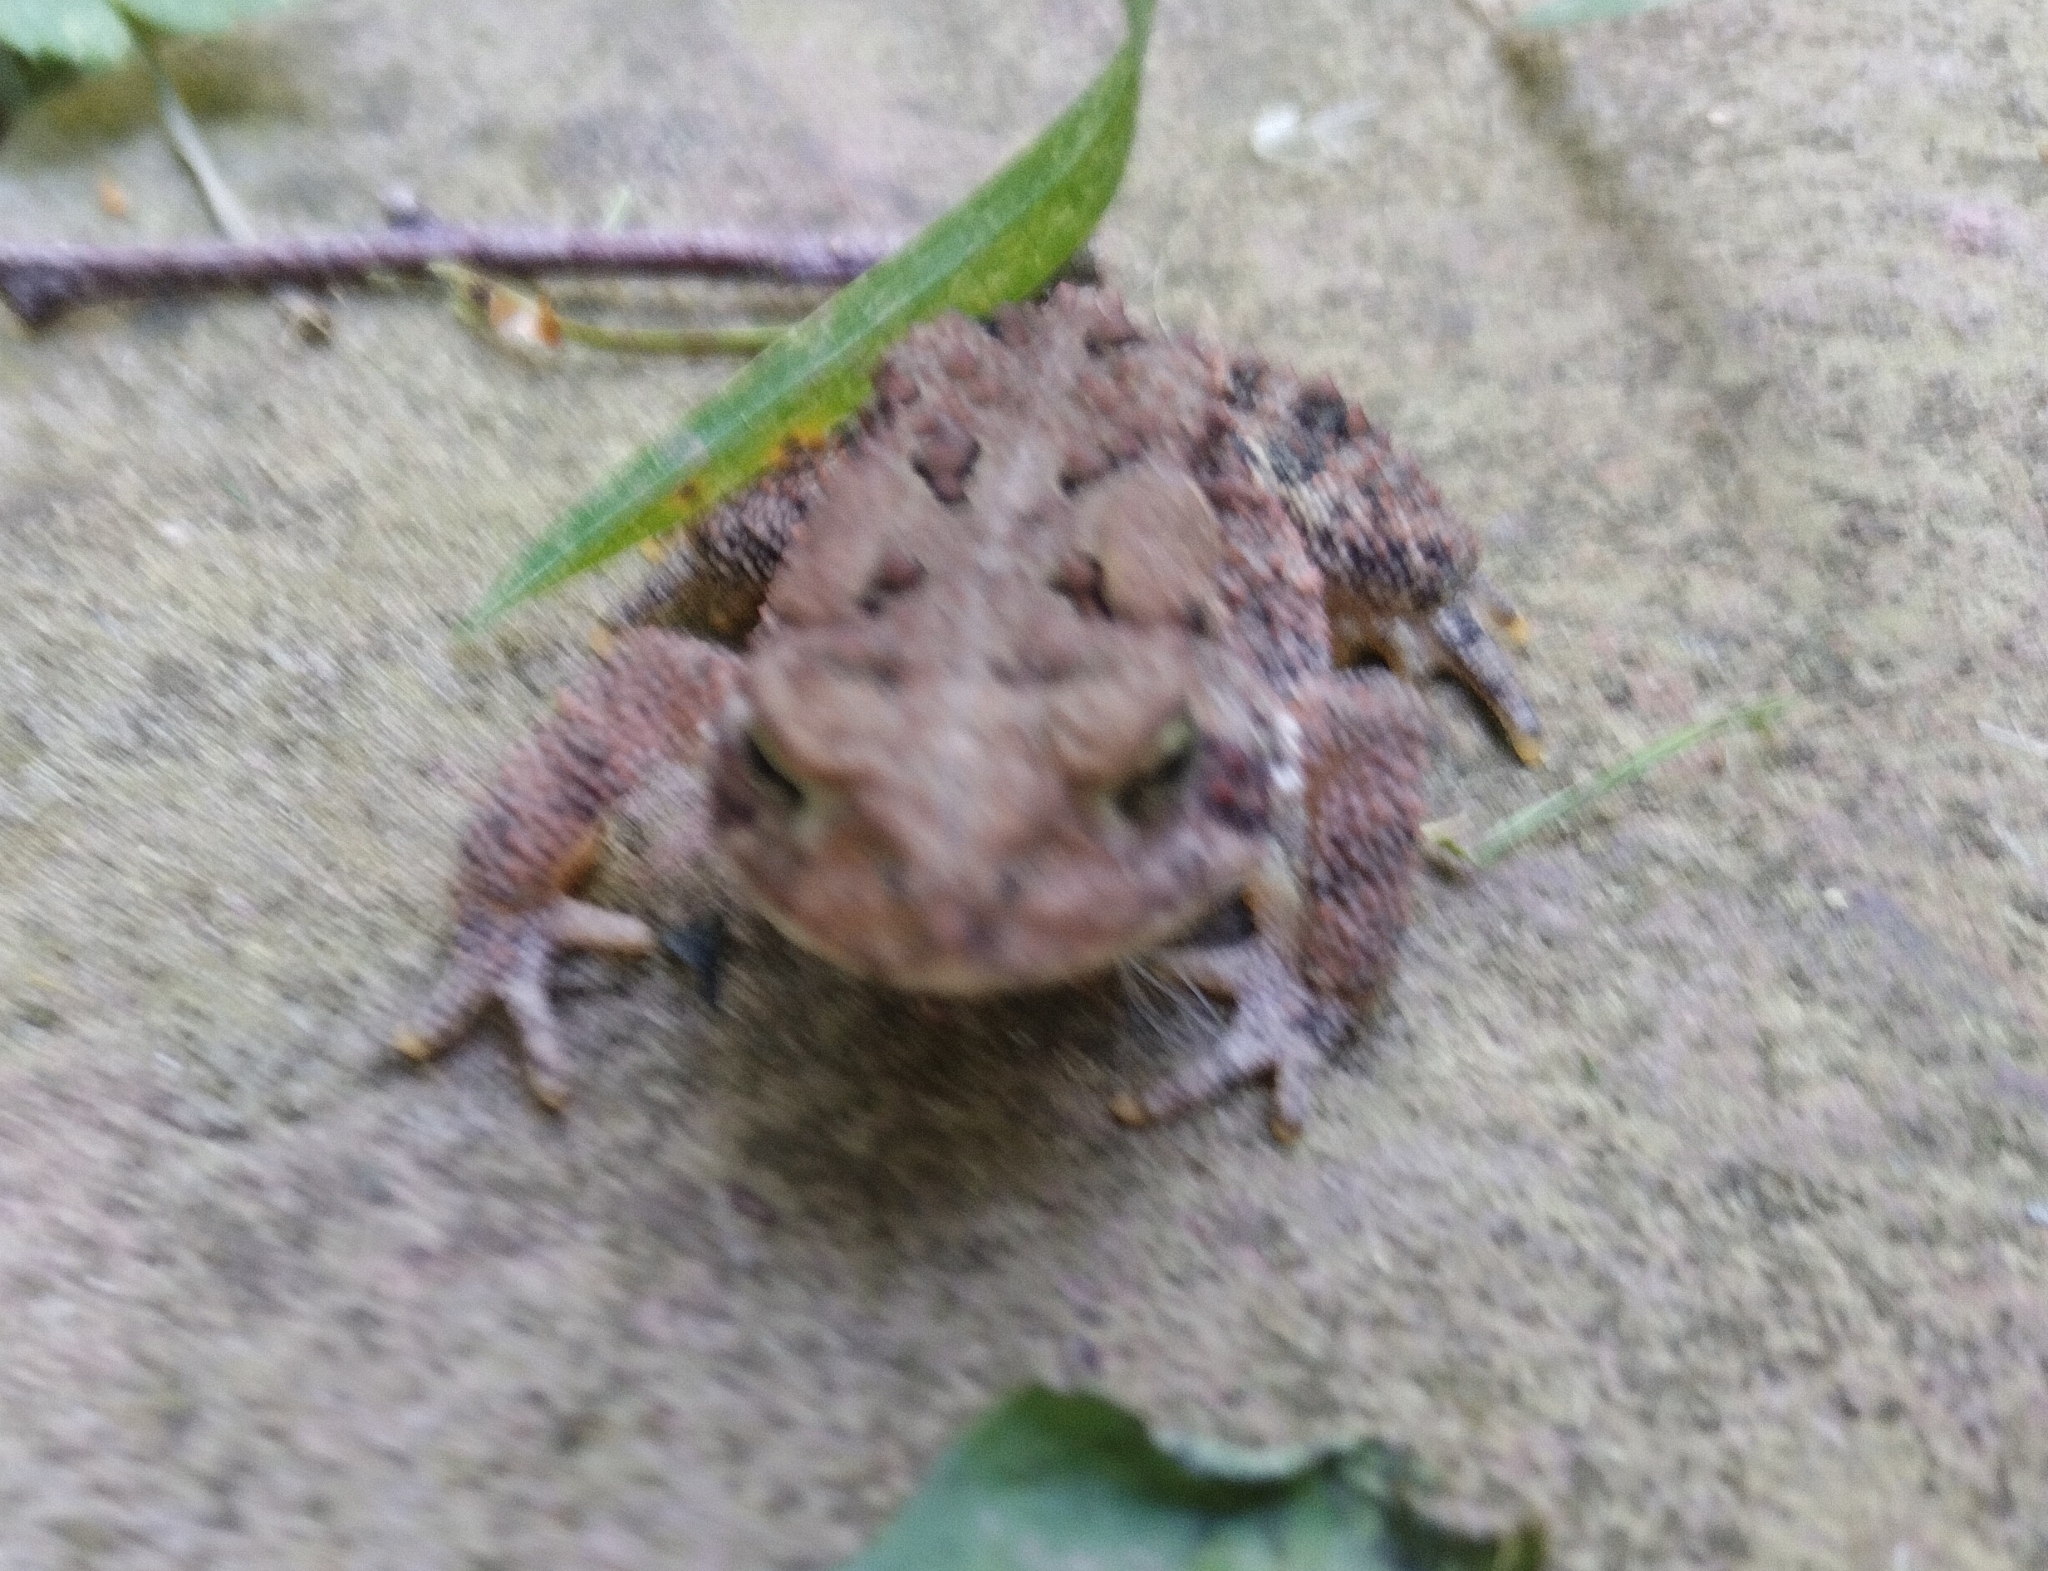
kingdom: Animalia
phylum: Chordata
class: Amphibia
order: Anura
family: Bufonidae
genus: Anaxyrus
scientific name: Anaxyrus americanus
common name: American toad
